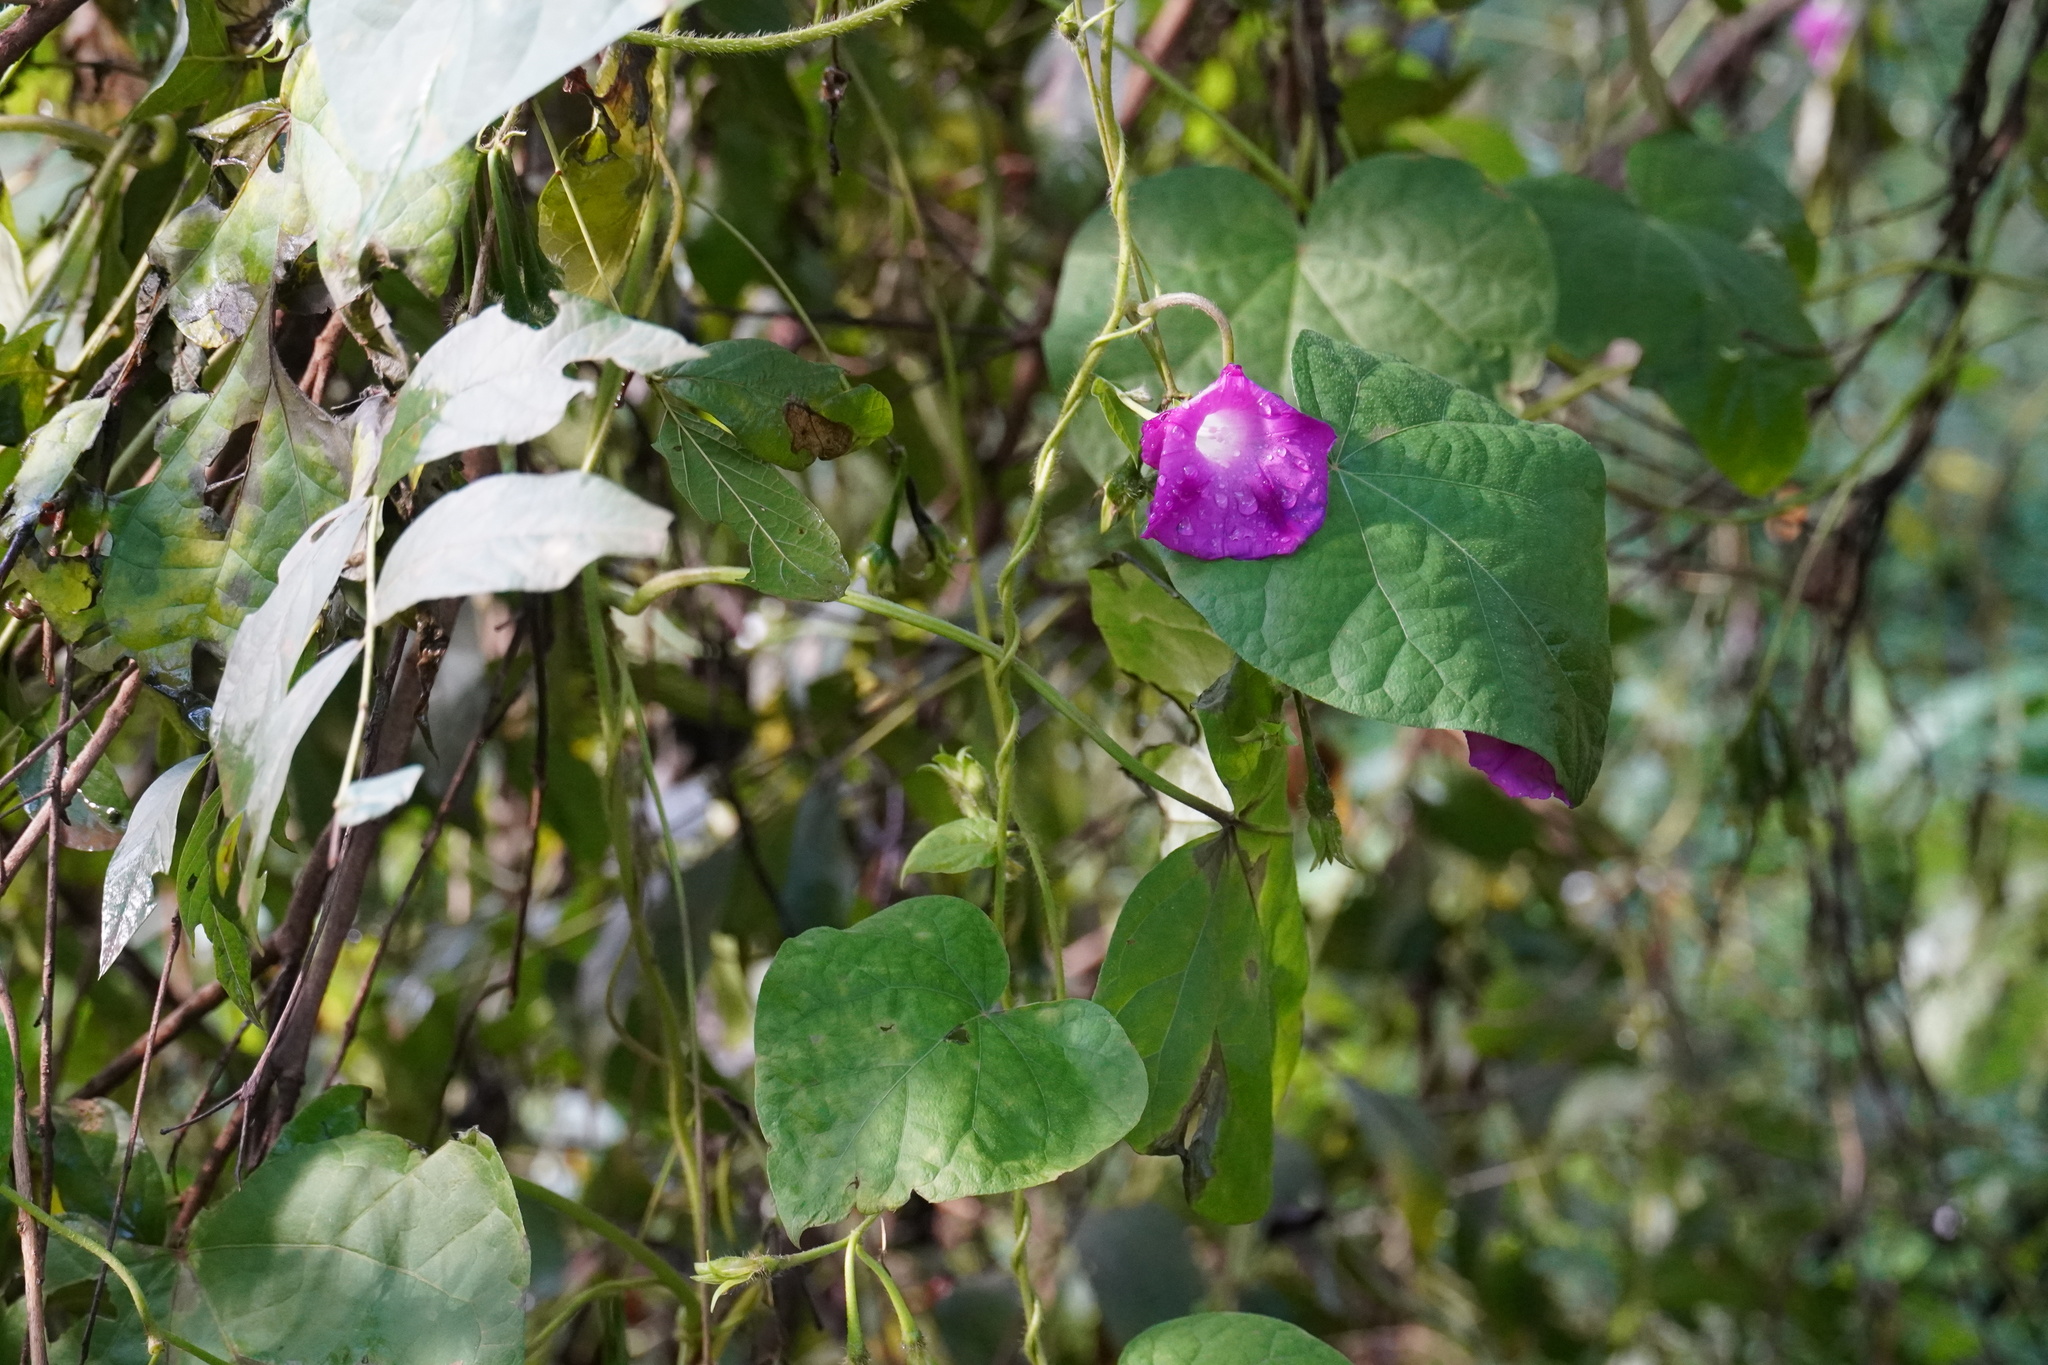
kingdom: Plantae
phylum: Tracheophyta
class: Magnoliopsida
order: Solanales
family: Convolvulaceae
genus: Ipomoea
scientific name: Ipomoea purpurea
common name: Common morning-glory
